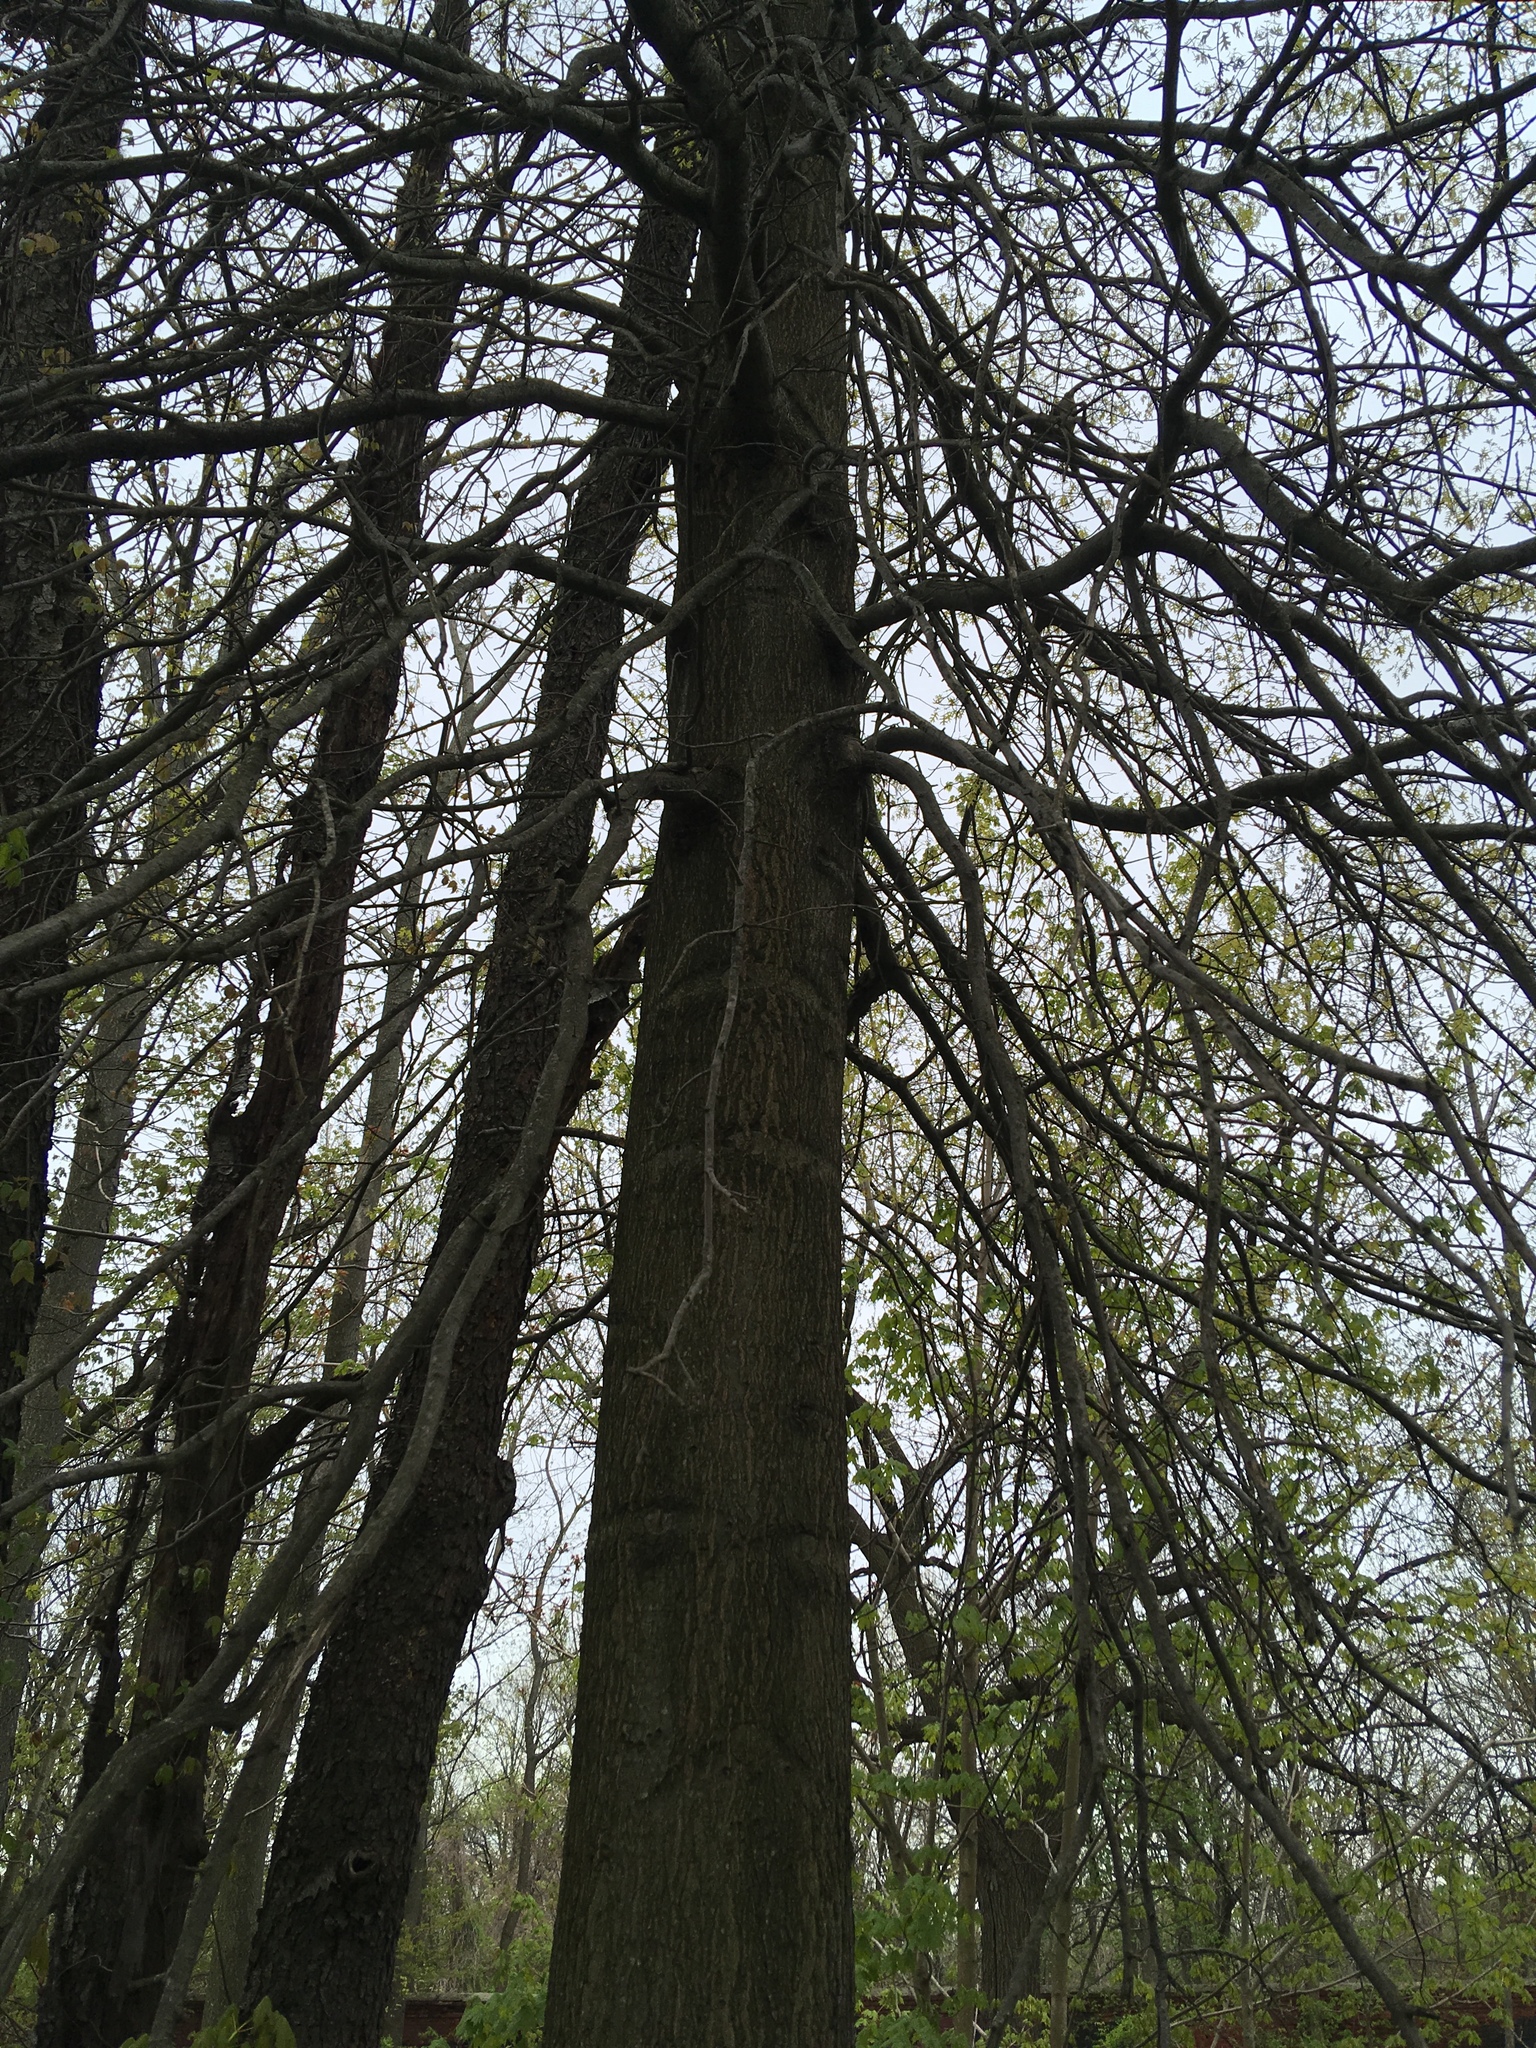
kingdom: Plantae
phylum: Tracheophyta
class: Magnoliopsida
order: Fagales
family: Fagaceae
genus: Quercus
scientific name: Quercus palustris
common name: Pin oak
